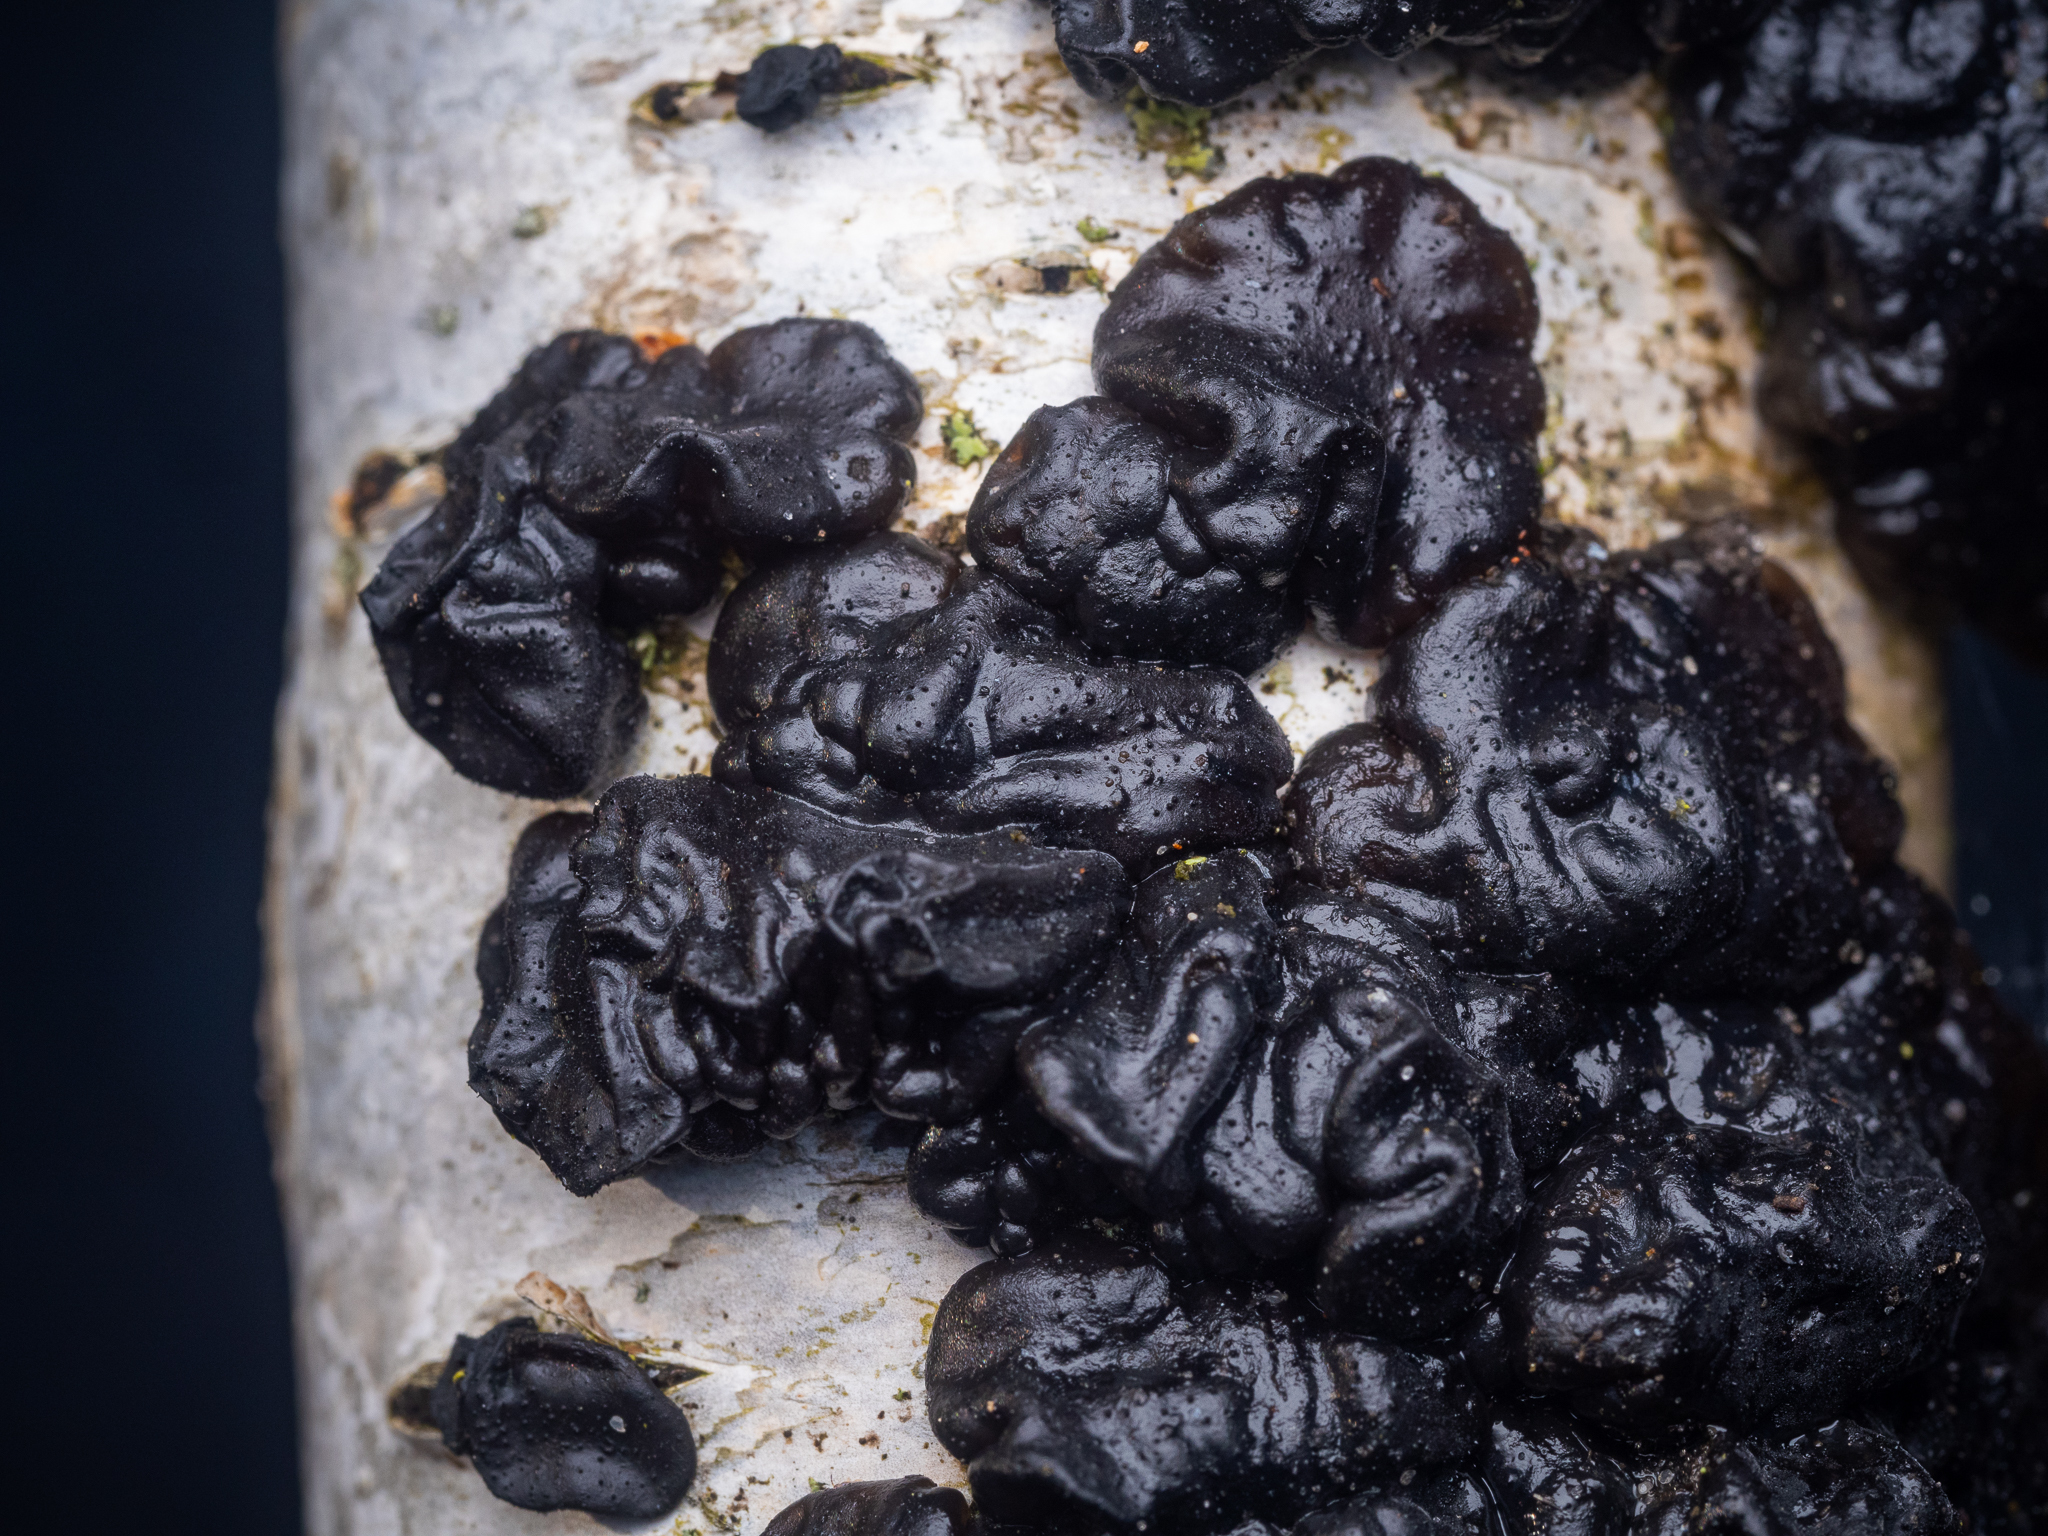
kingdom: Fungi
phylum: Basidiomycota
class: Agaricomycetes
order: Auriculariales
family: Auriculariaceae
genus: Exidia
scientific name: Exidia glandulosa
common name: Witches' butter
